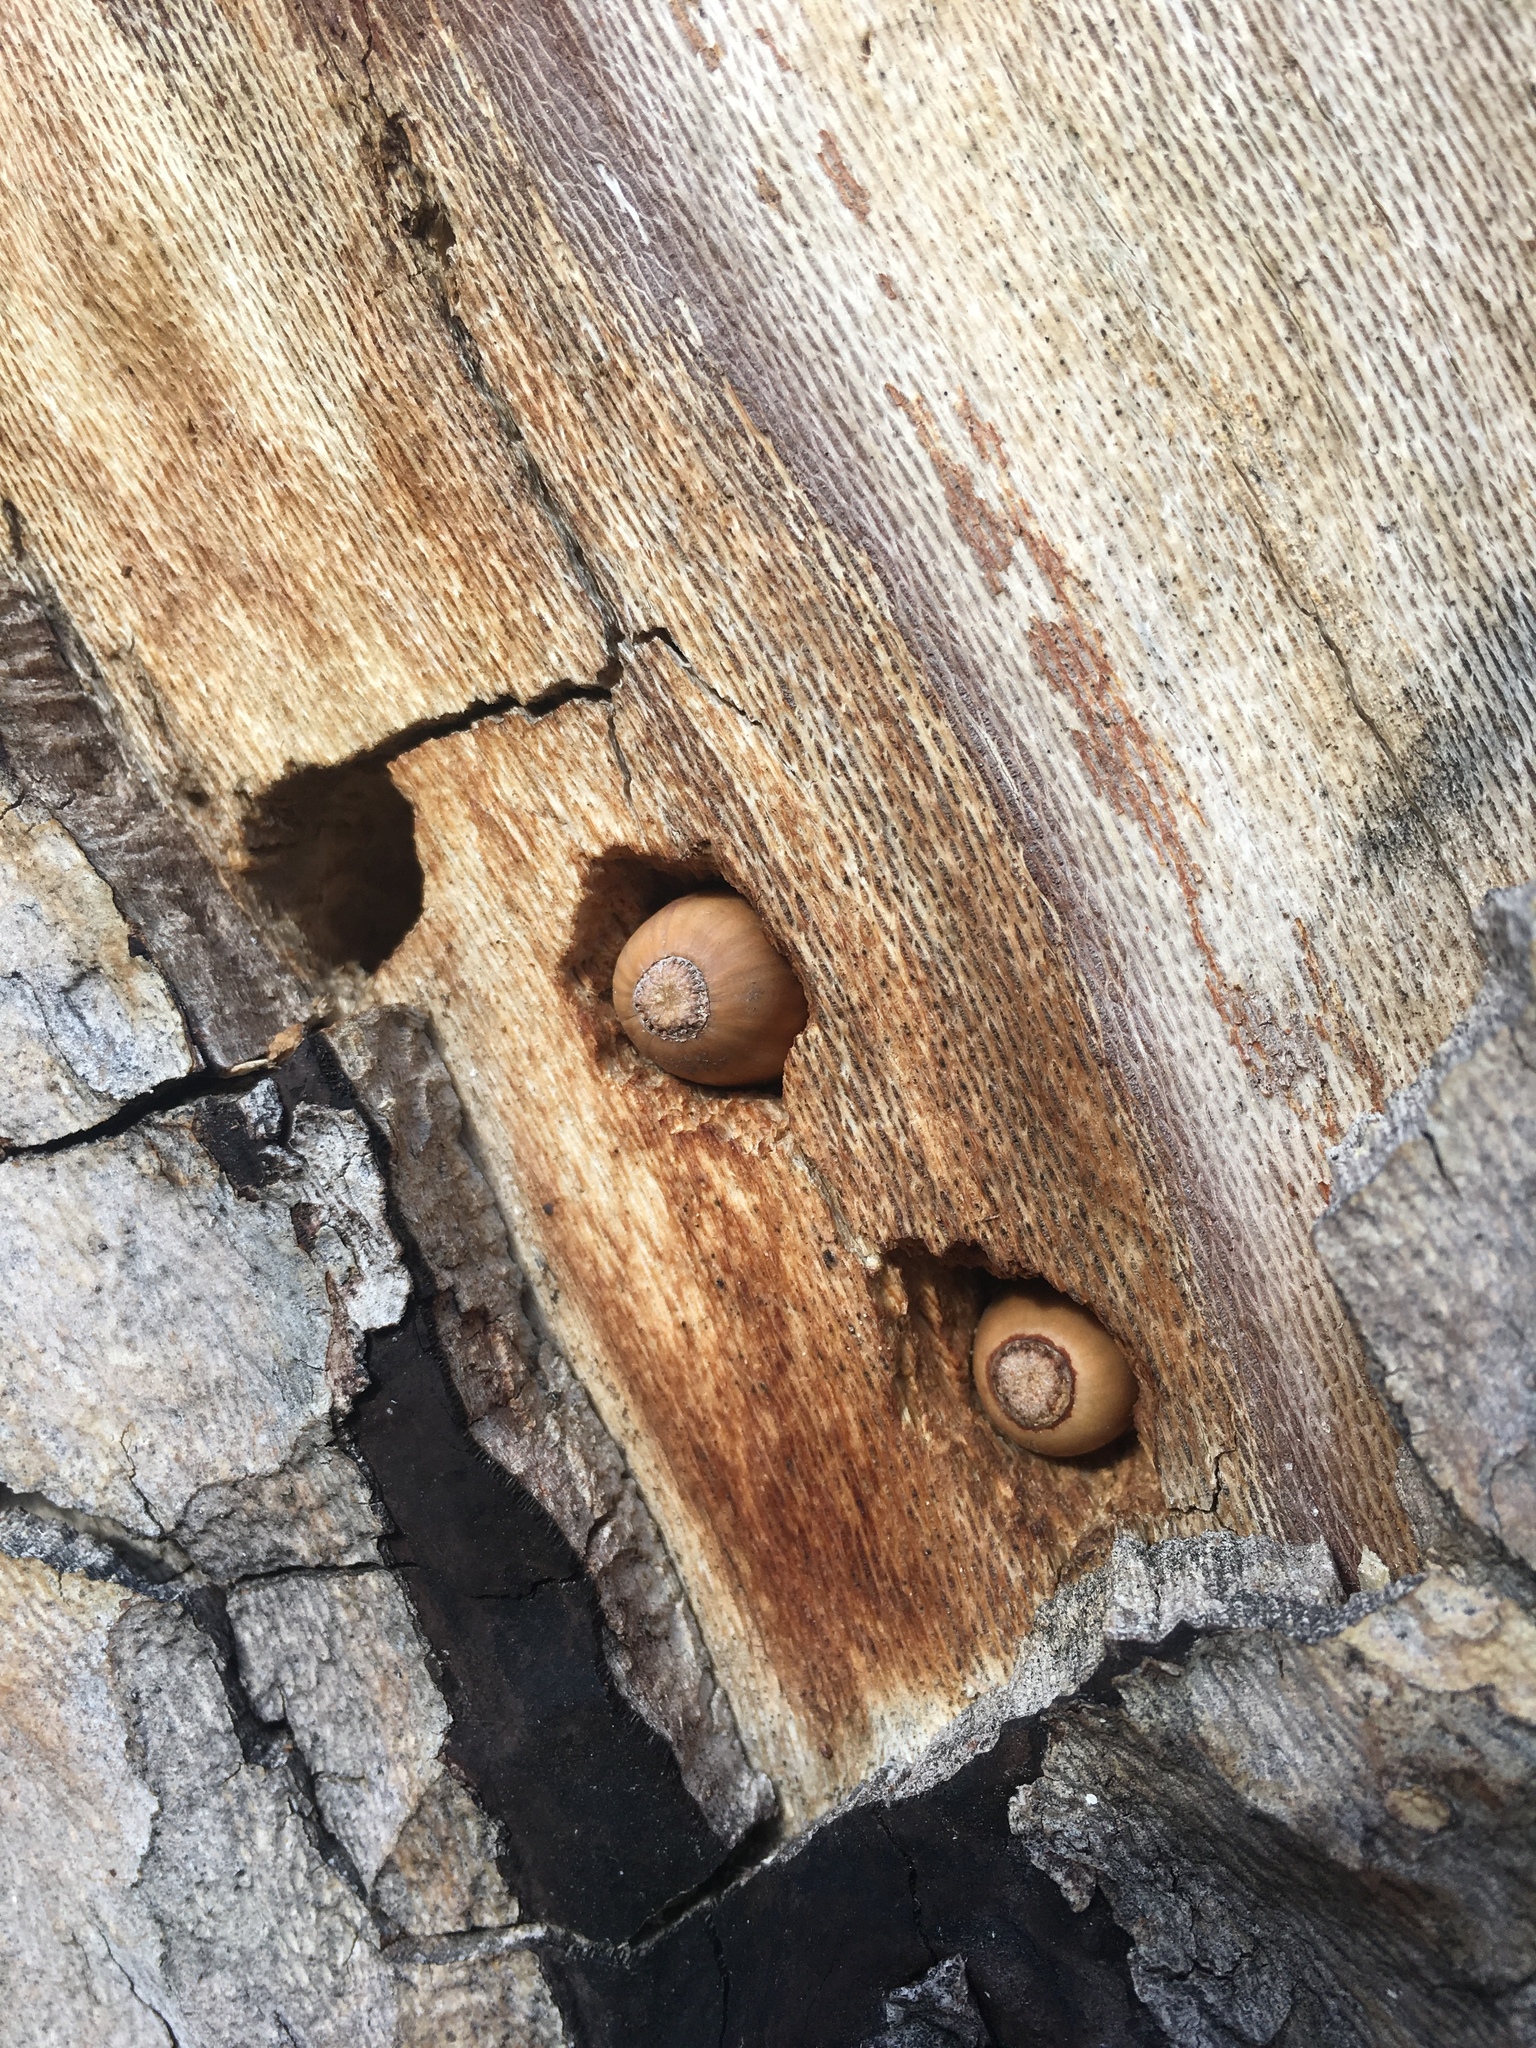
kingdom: Animalia
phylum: Chordata
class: Aves
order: Piciformes
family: Picidae
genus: Melanerpes
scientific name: Melanerpes formicivorus
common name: Acorn woodpecker
